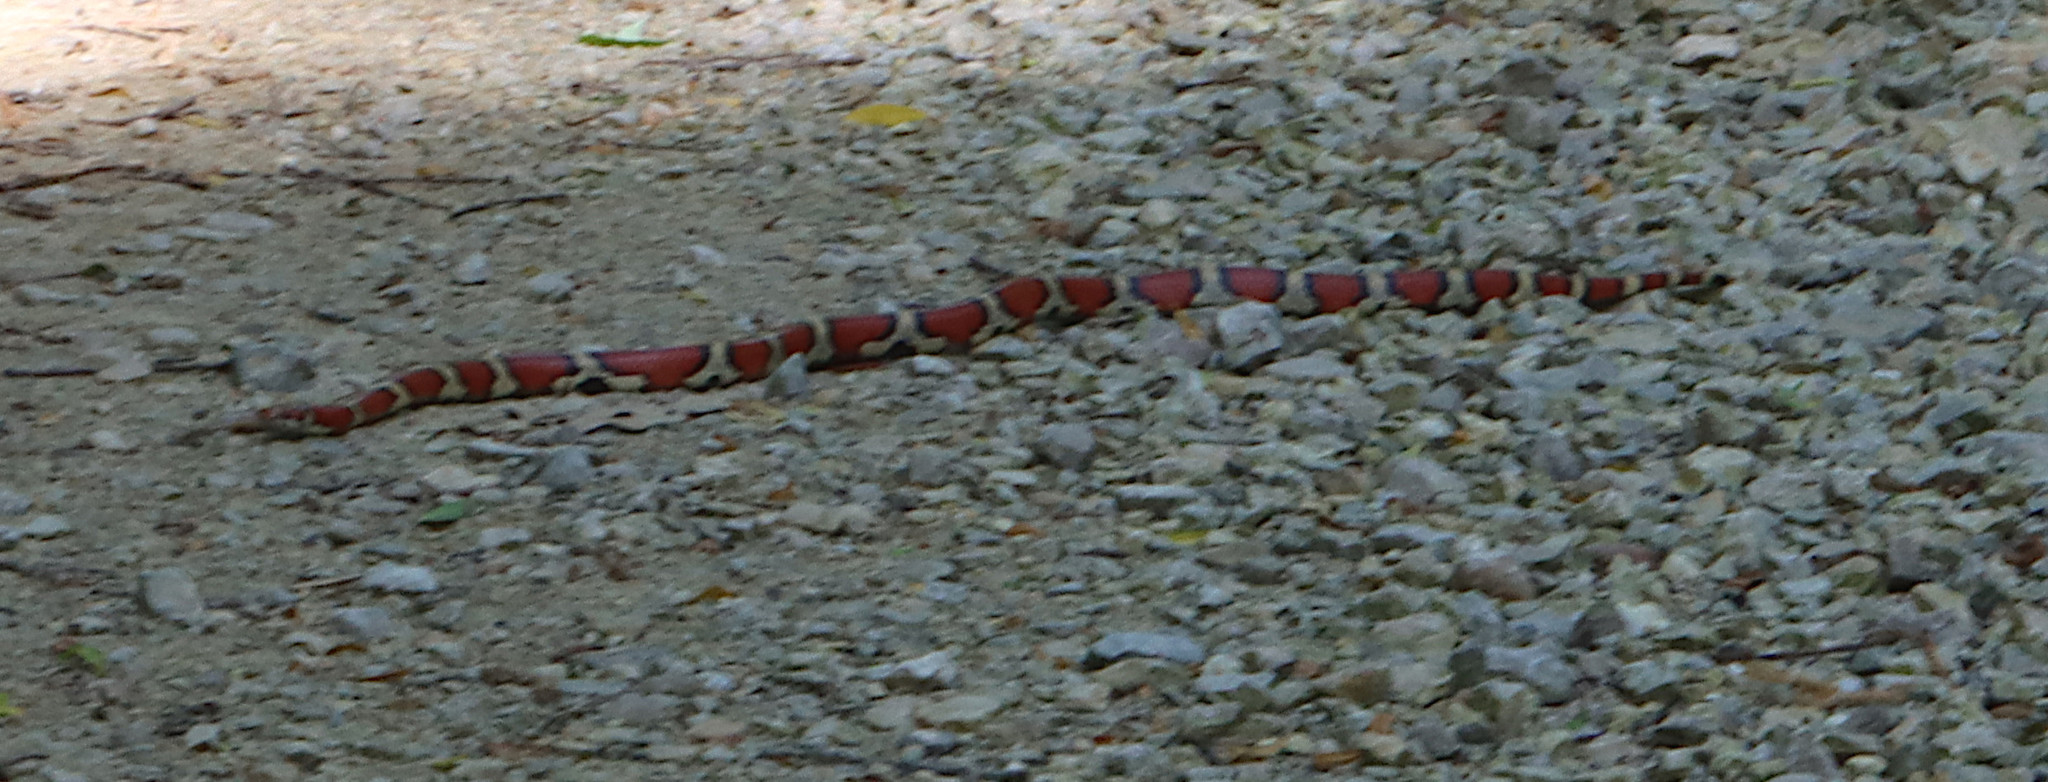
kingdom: Animalia
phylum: Chordata
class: Squamata
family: Colubridae
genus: Lampropeltis
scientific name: Lampropeltis triangulum
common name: Eastern milksnake
